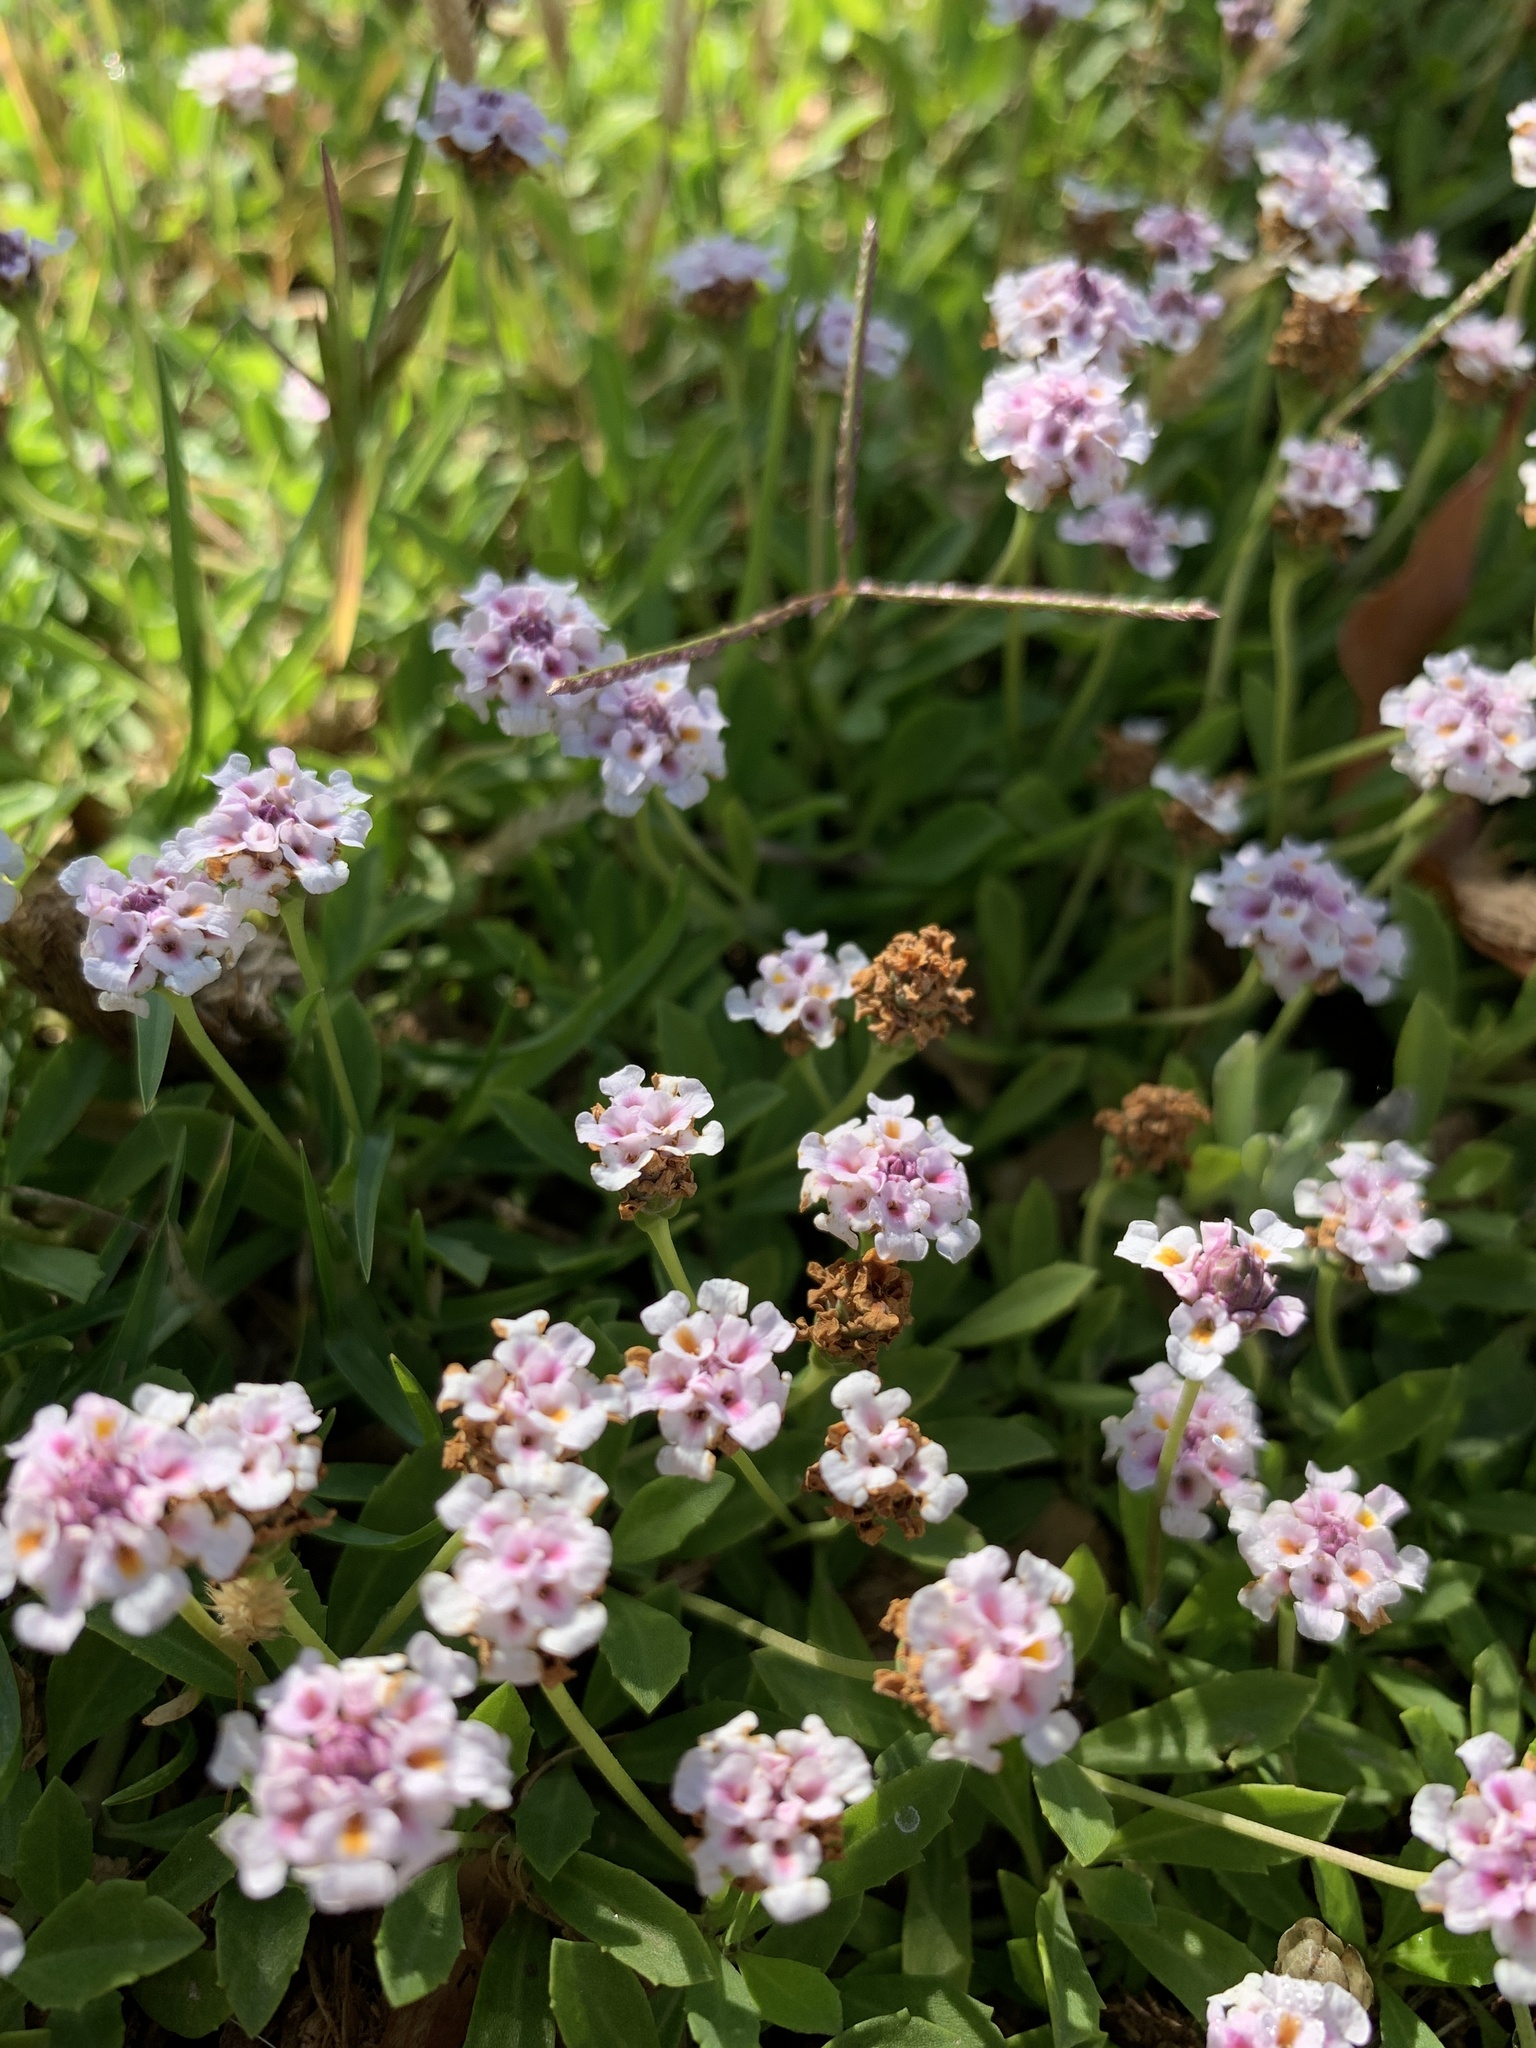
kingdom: Plantae
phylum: Tracheophyta
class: Magnoliopsida
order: Lamiales
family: Verbenaceae
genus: Phyla
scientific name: Phyla nodiflora
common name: Frogfruit
